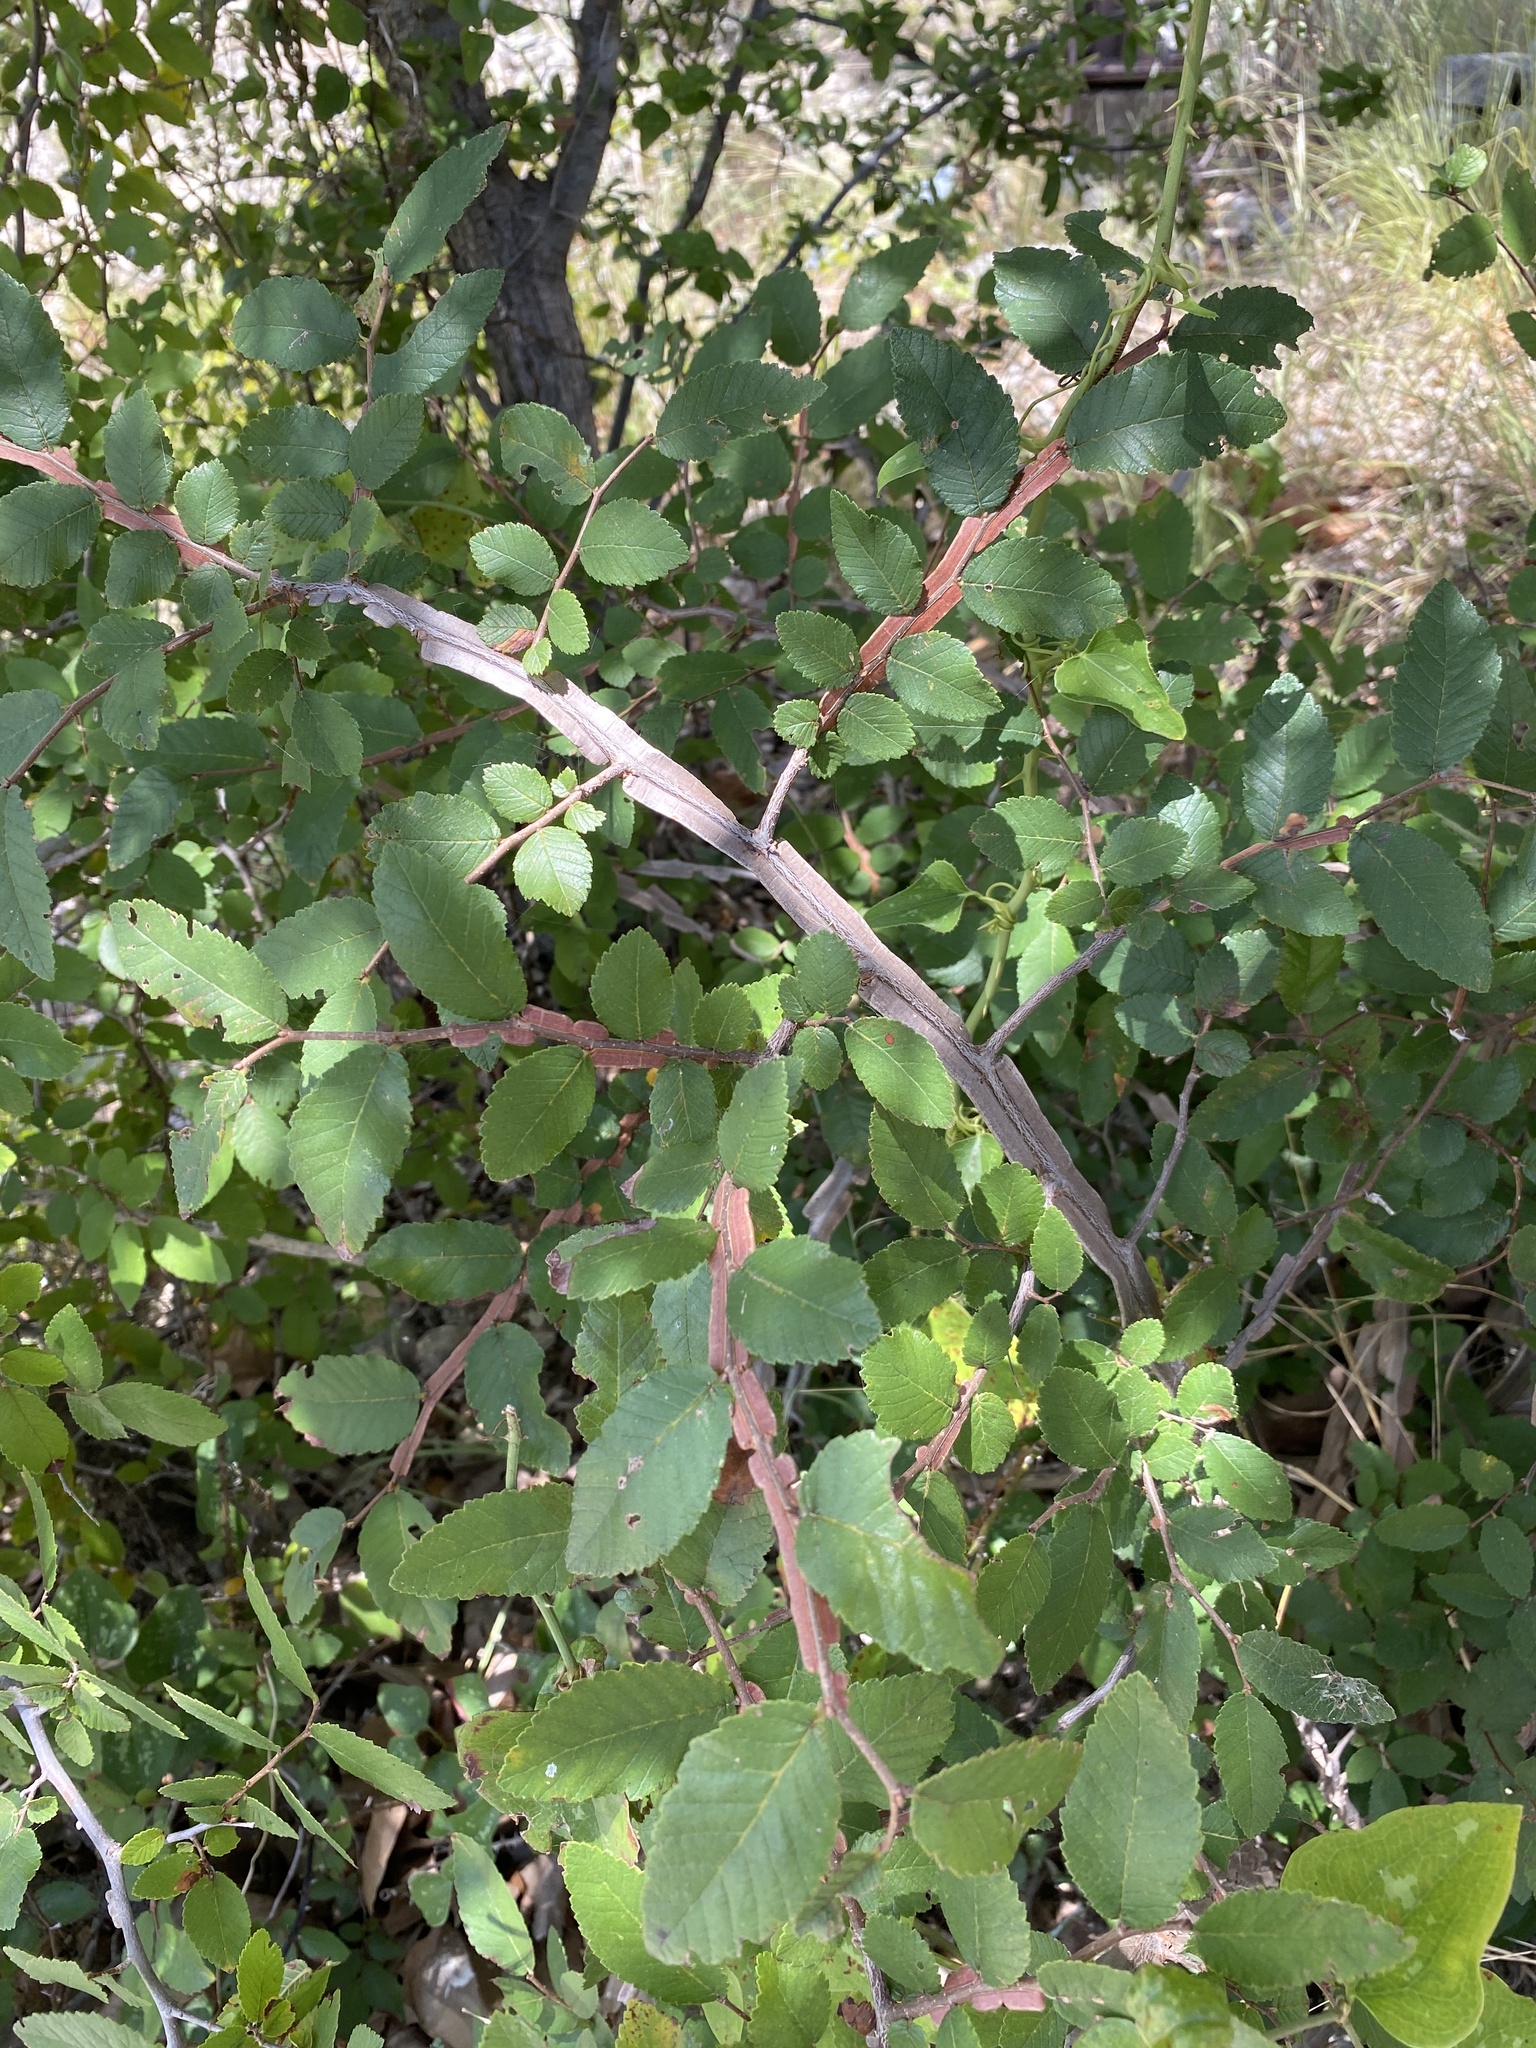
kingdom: Plantae
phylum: Tracheophyta
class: Magnoliopsida
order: Rosales
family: Ulmaceae
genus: Ulmus
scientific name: Ulmus crassifolia
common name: Basket elm
